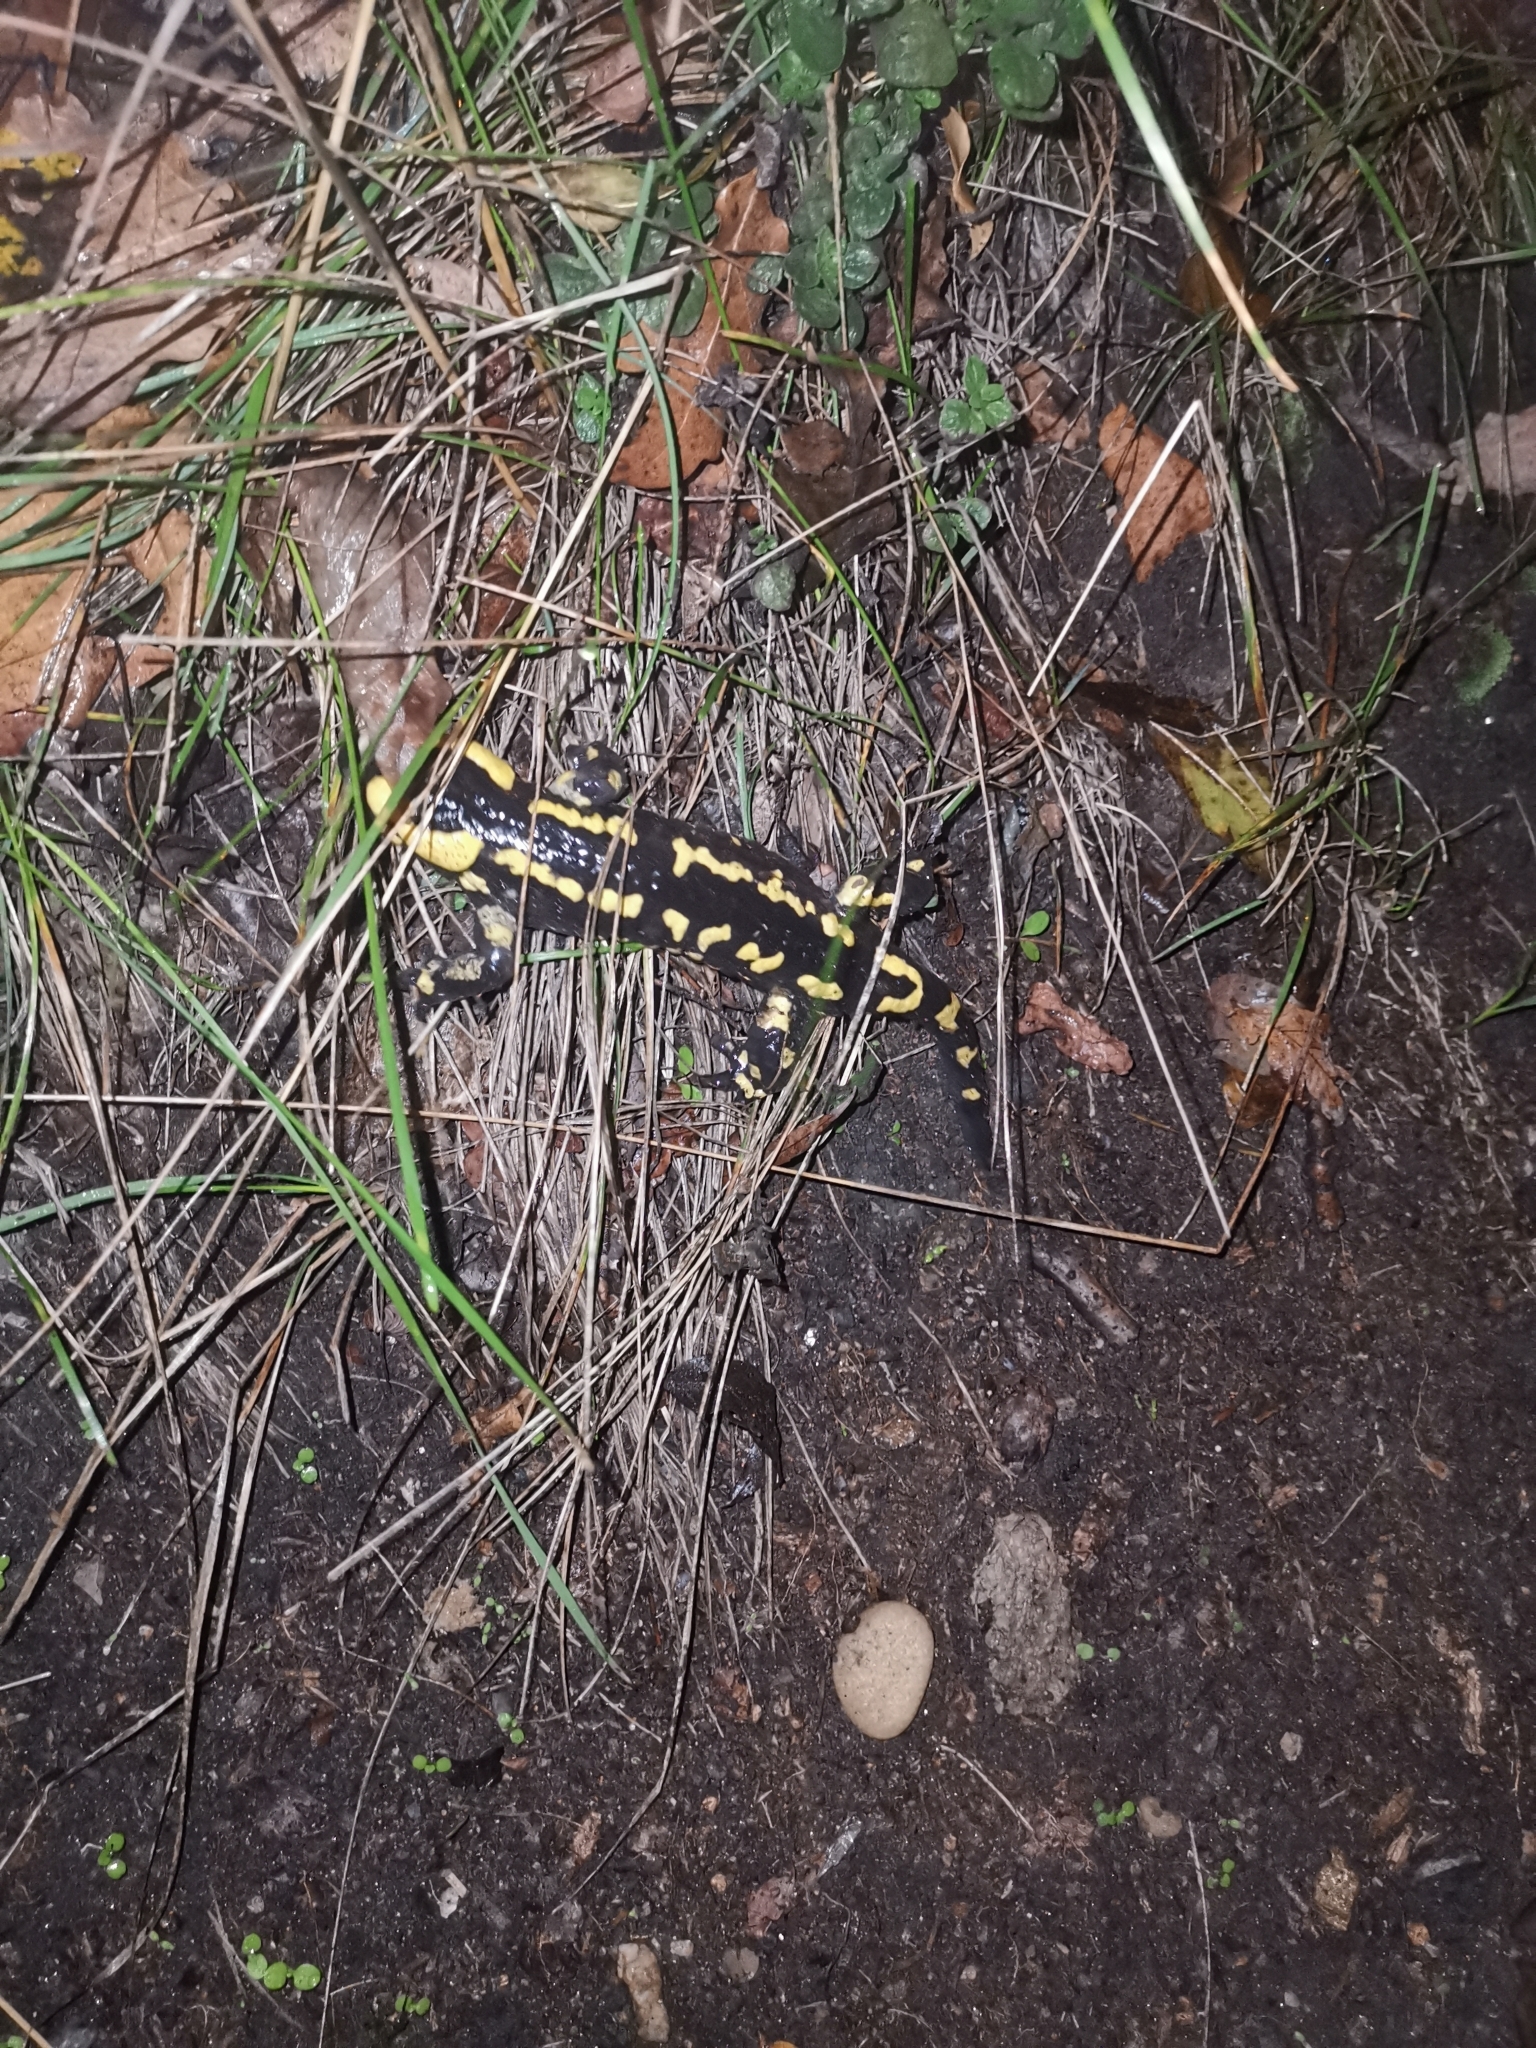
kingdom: Animalia
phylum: Chordata
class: Amphibia
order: Caudata
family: Salamandridae
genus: Salamandra
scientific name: Salamandra salamandra
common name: Fire salamander
